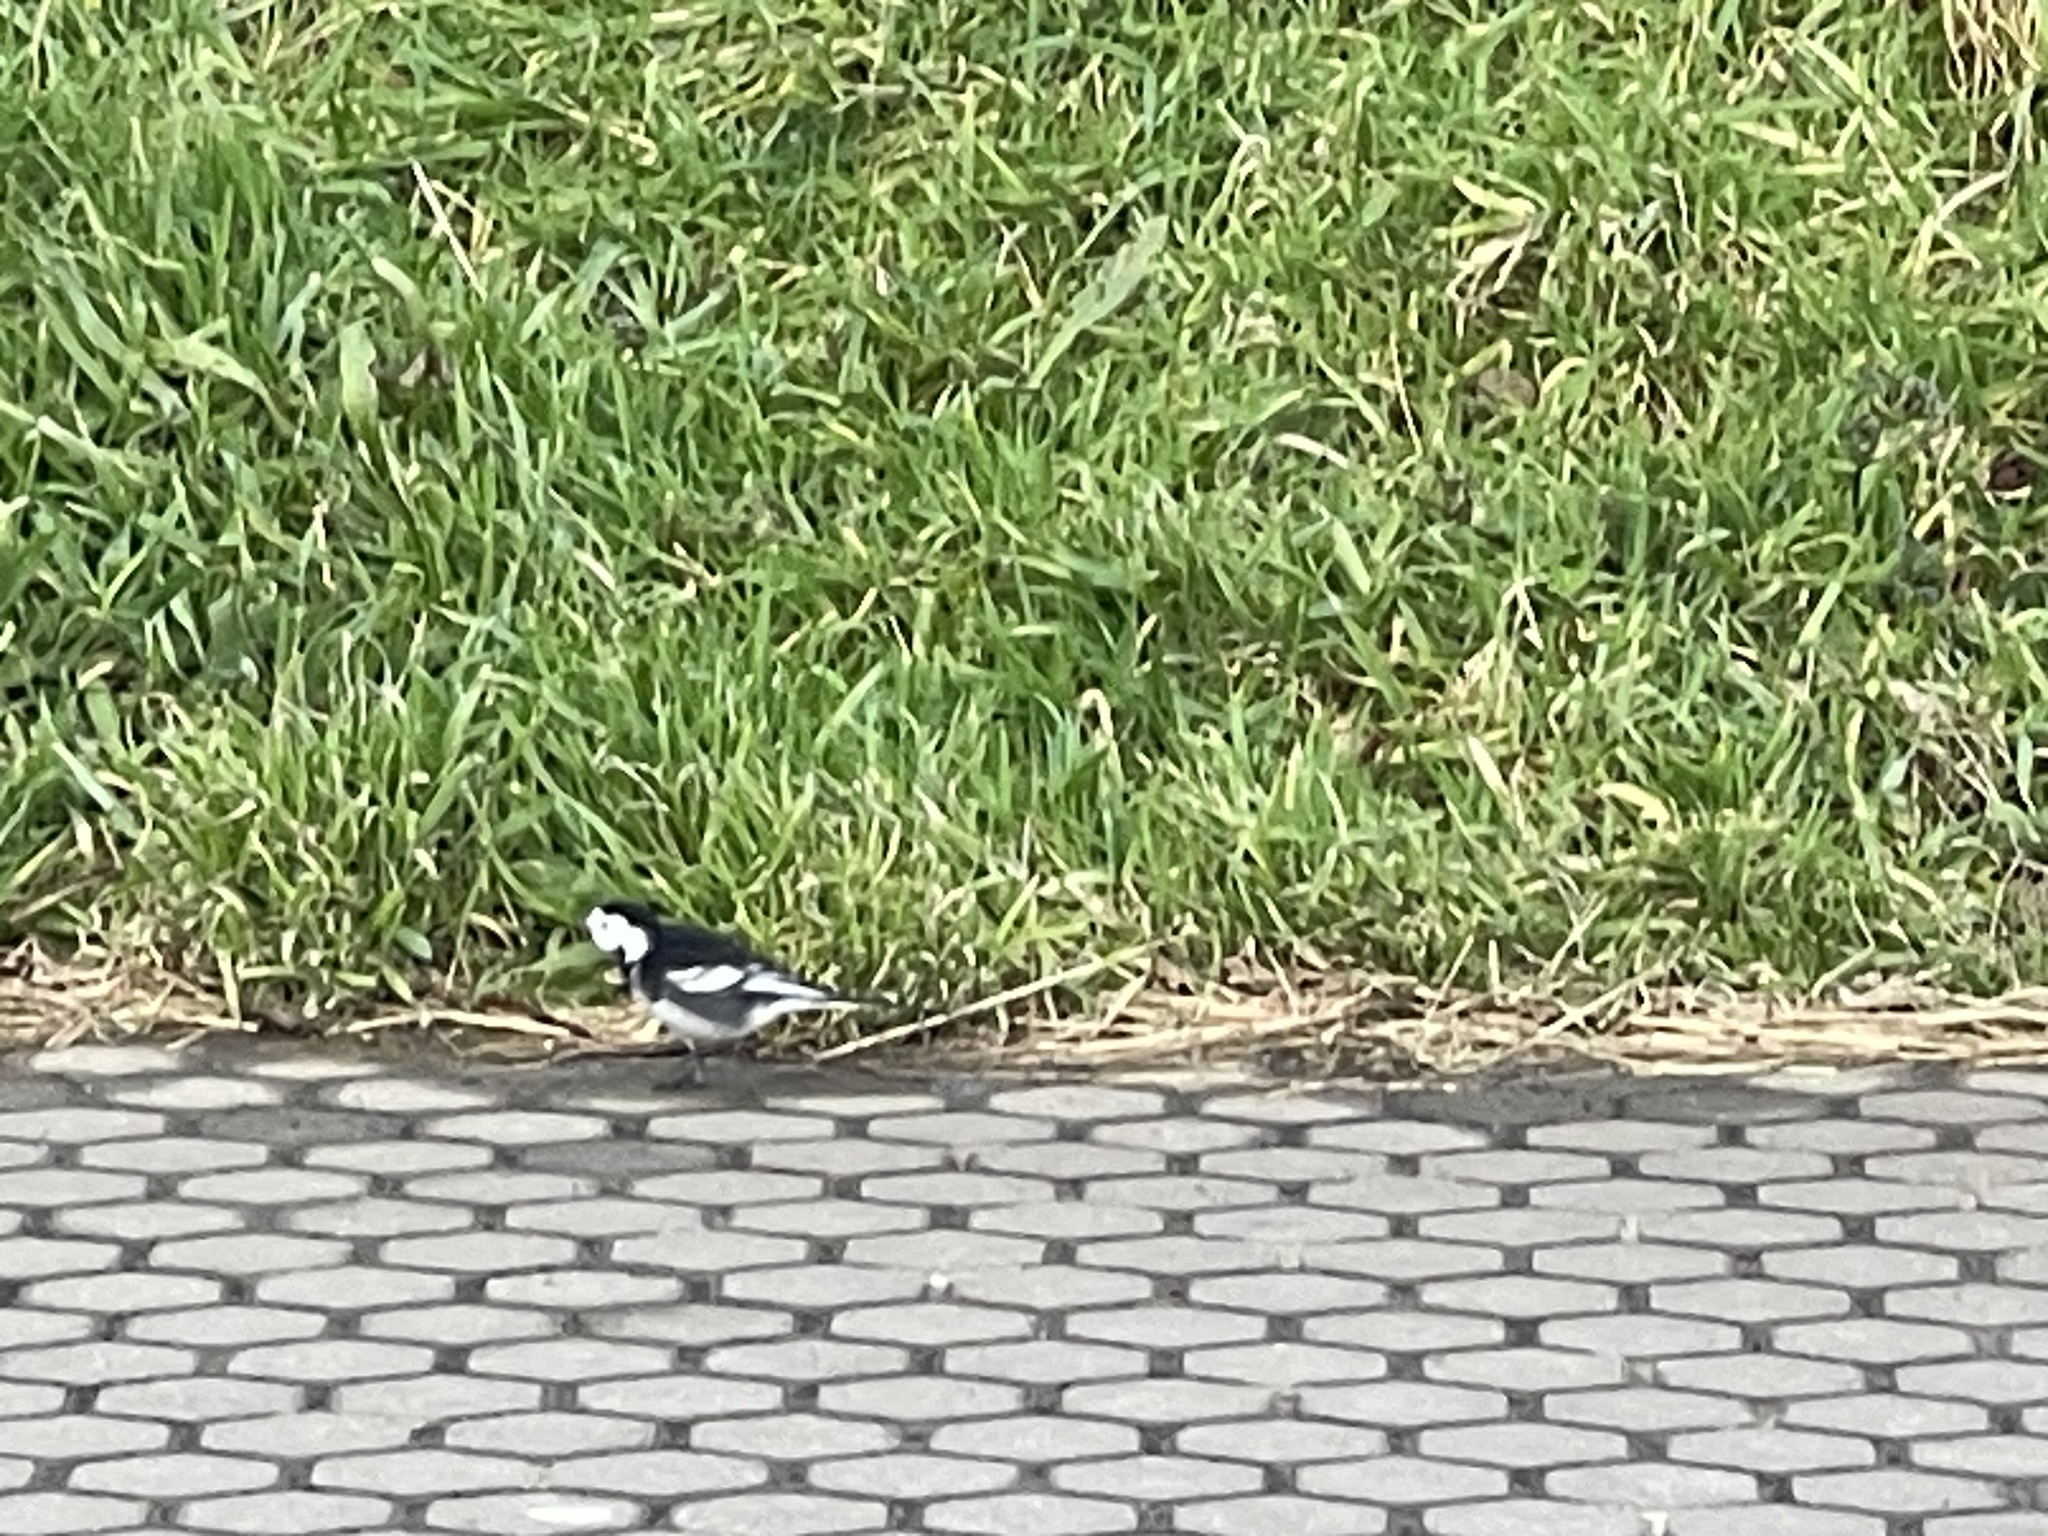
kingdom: Animalia
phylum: Chordata
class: Aves
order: Passeriformes
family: Motacillidae
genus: Motacilla
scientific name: Motacilla alba
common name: White wagtail
